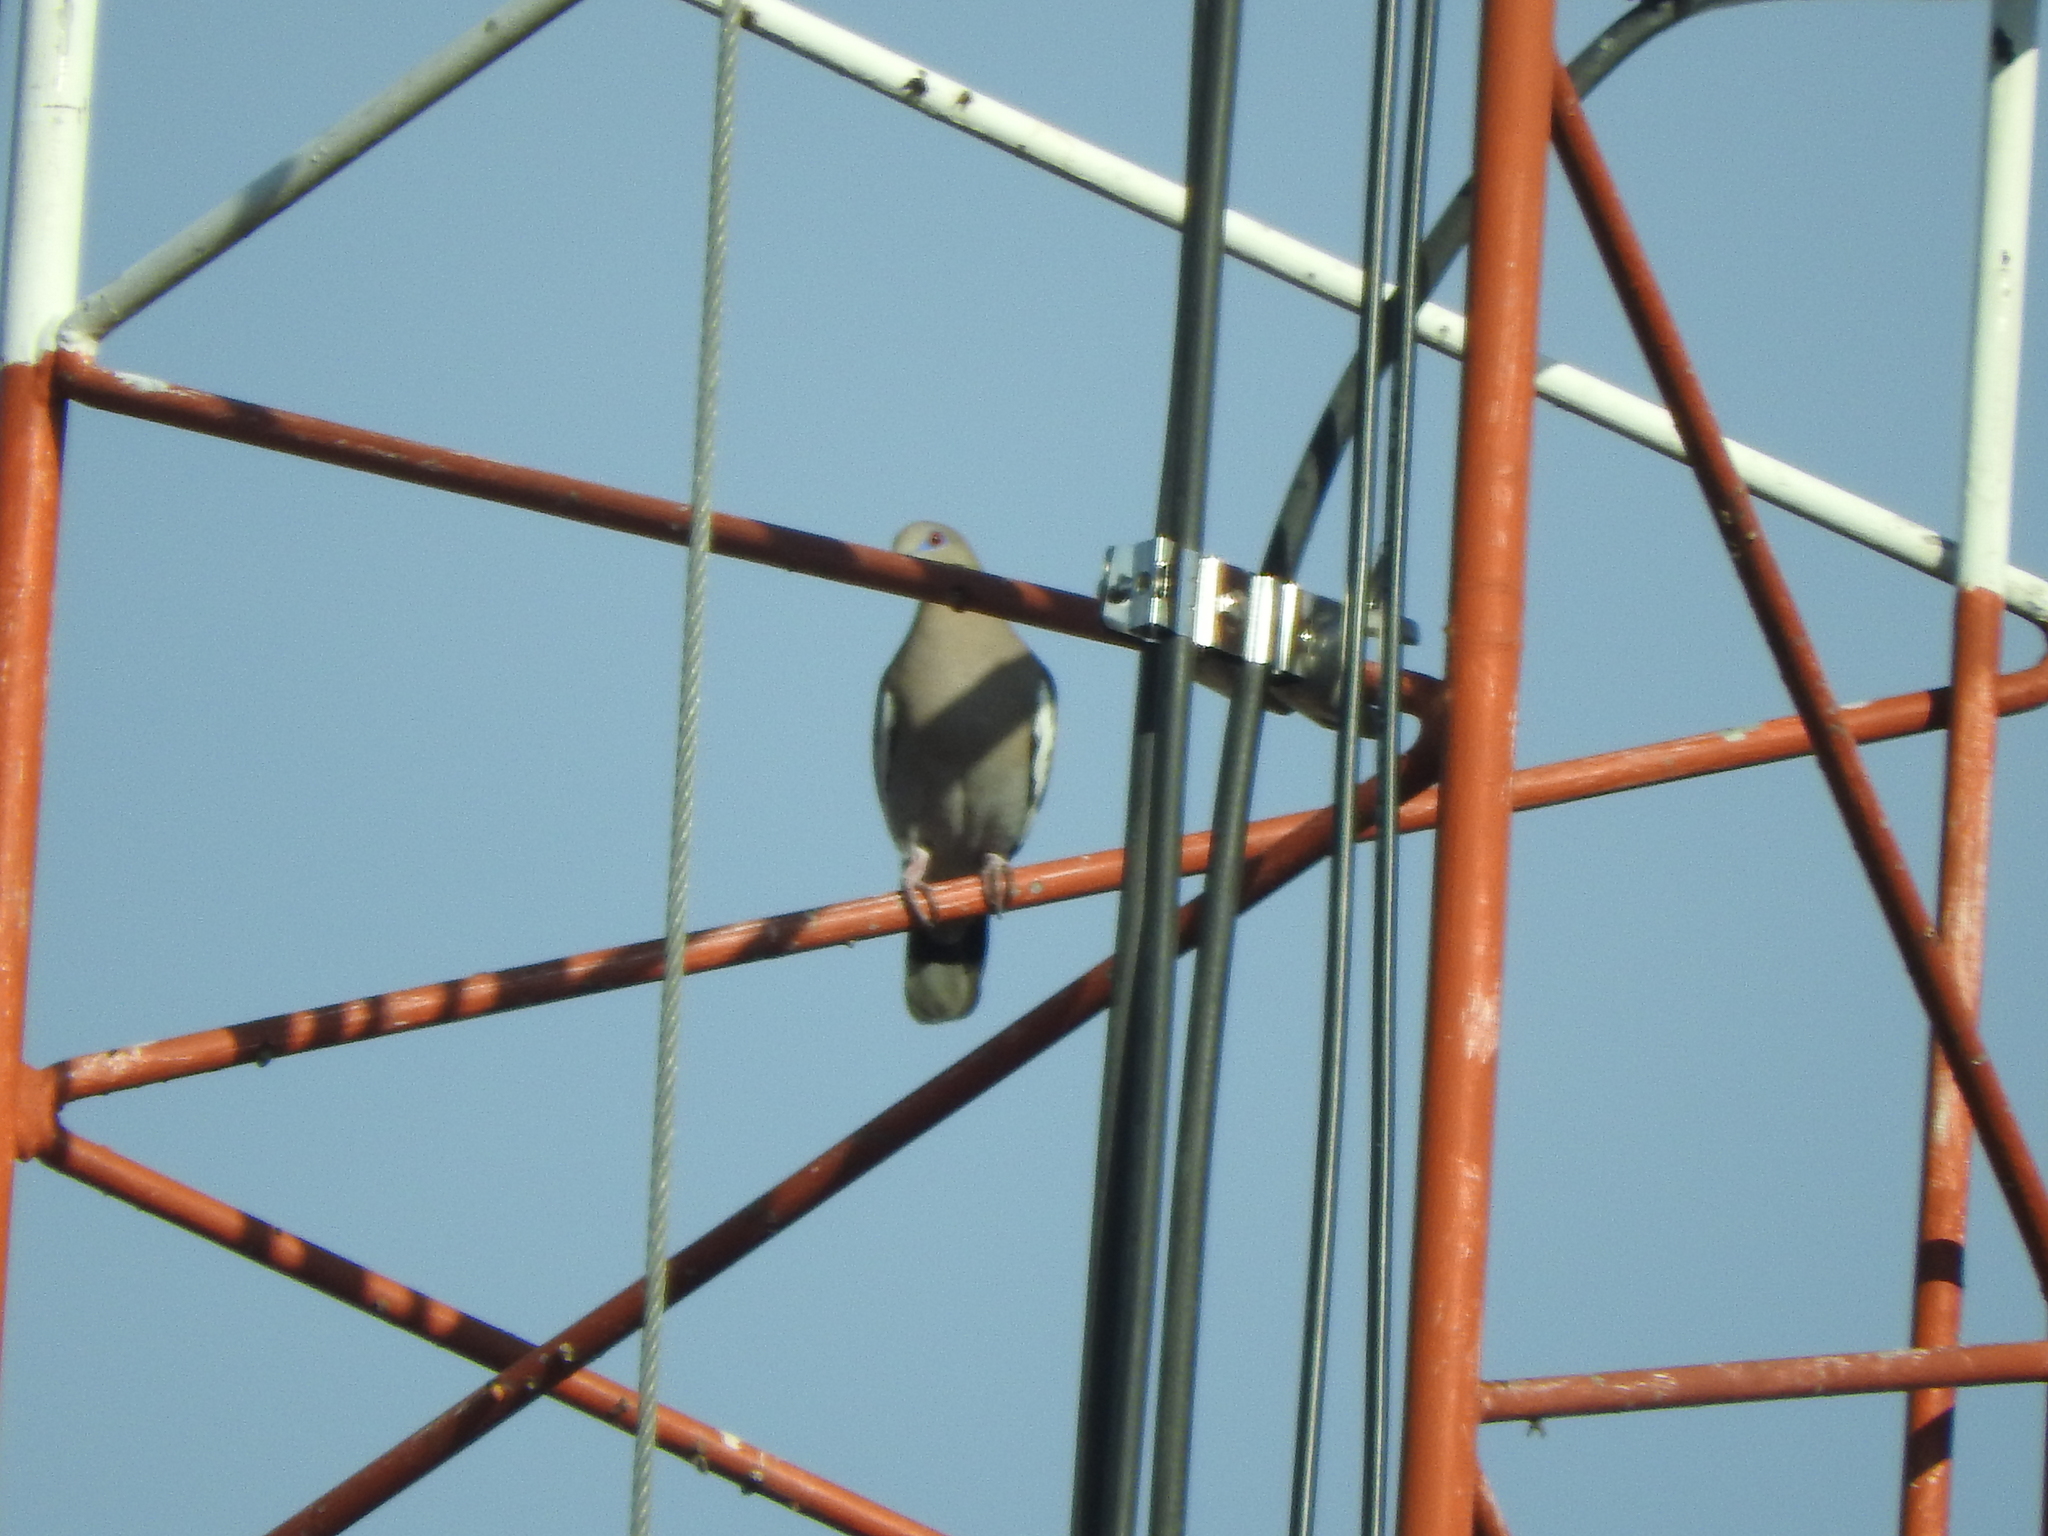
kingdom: Animalia
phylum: Chordata
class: Aves
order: Columbiformes
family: Columbidae
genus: Zenaida
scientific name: Zenaida asiatica
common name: White-winged dove
